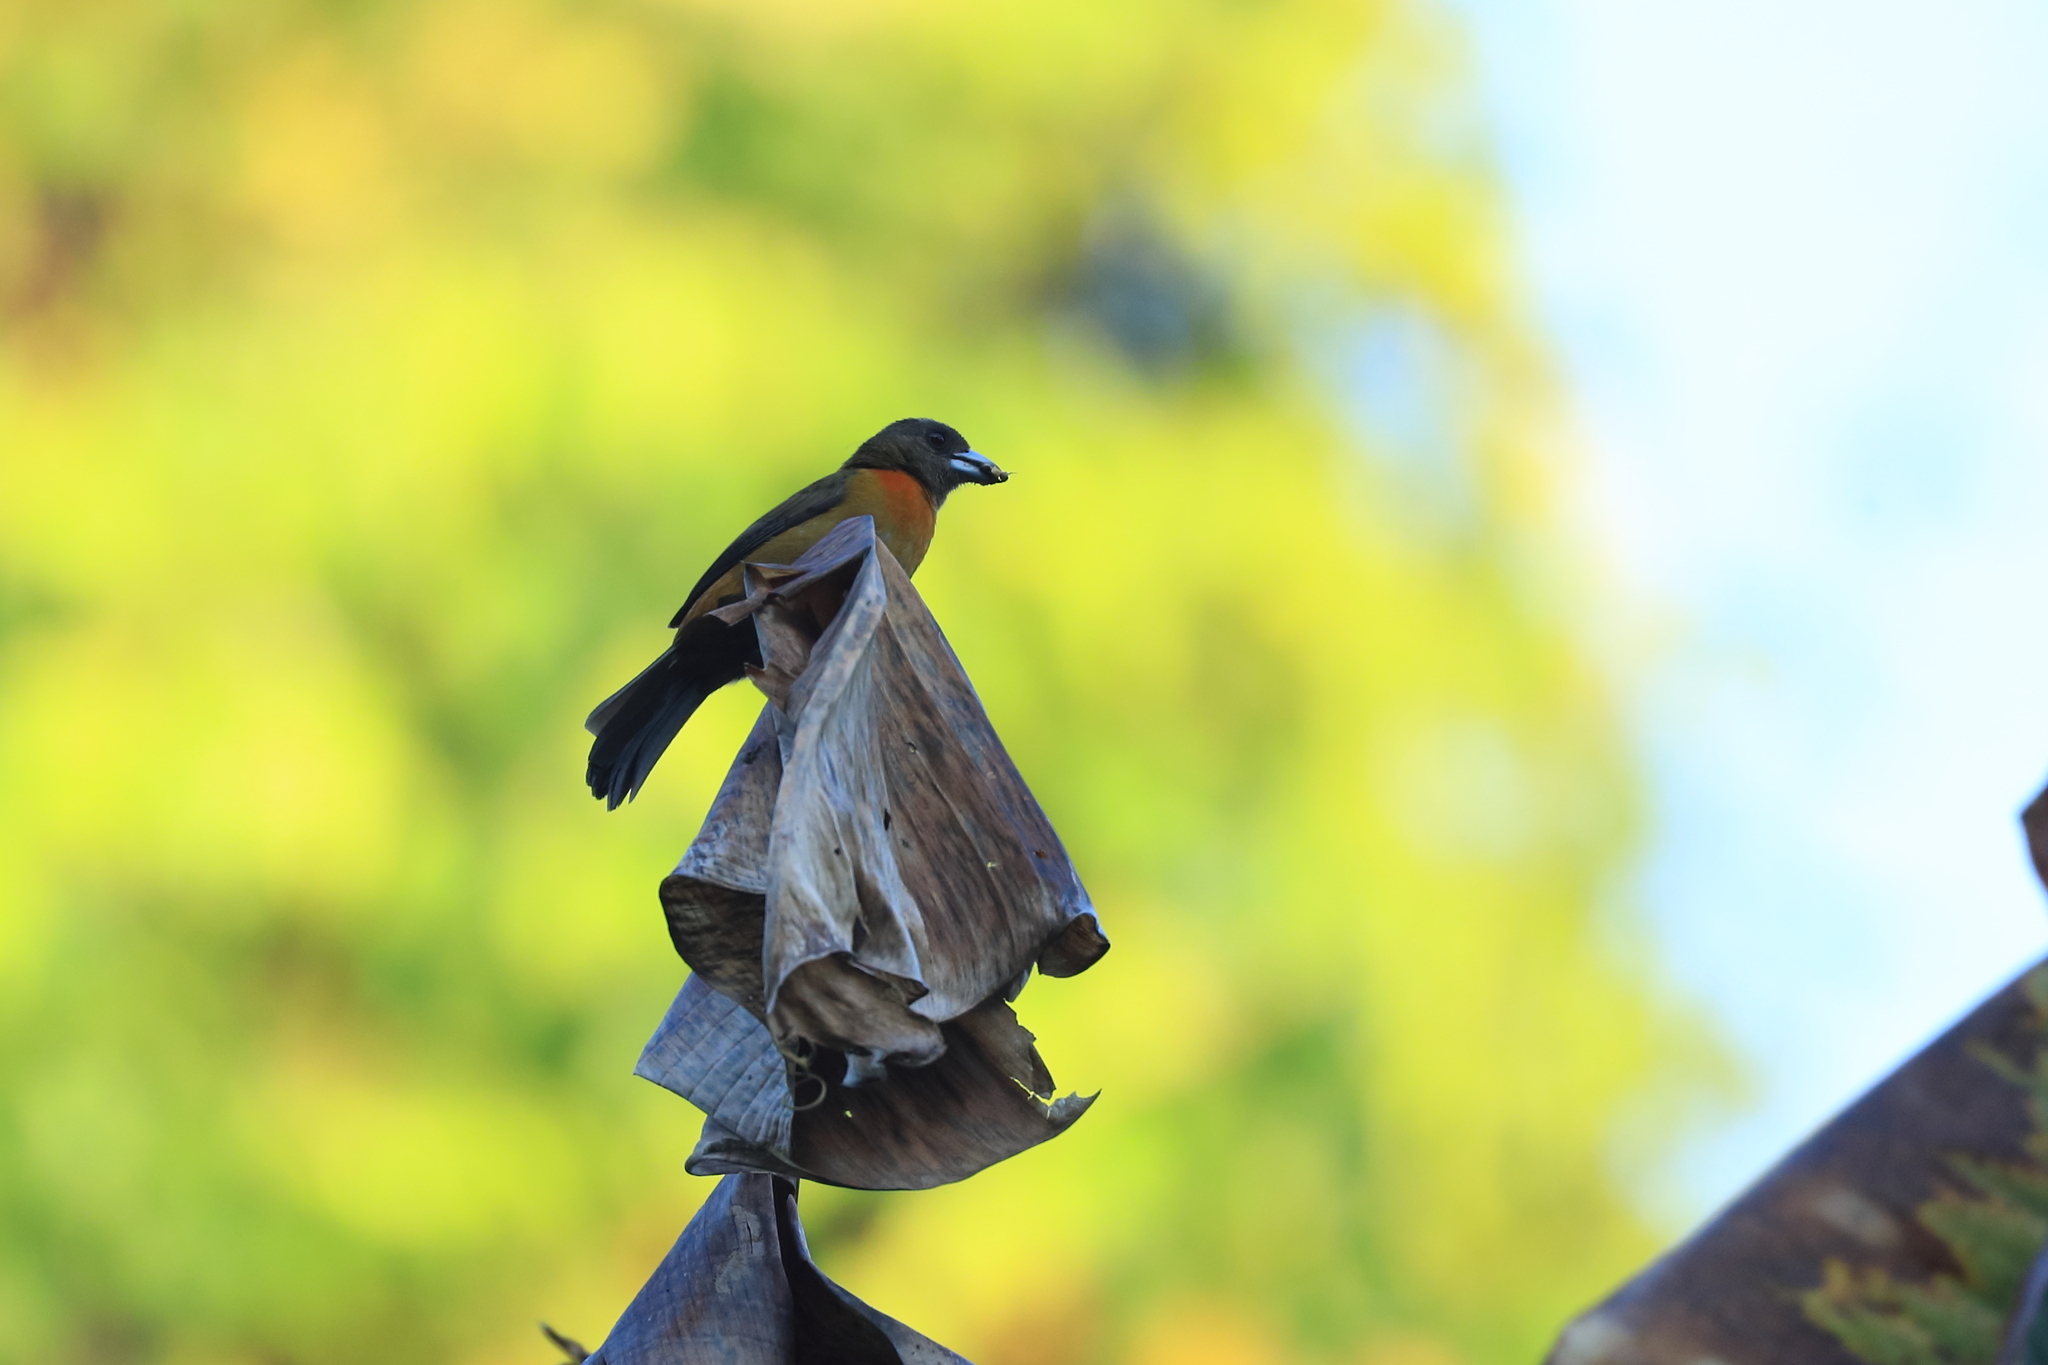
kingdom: Animalia
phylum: Chordata
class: Aves
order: Passeriformes
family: Thraupidae
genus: Ramphocelus
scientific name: Ramphocelus passerinii
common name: Passerini's tanager
